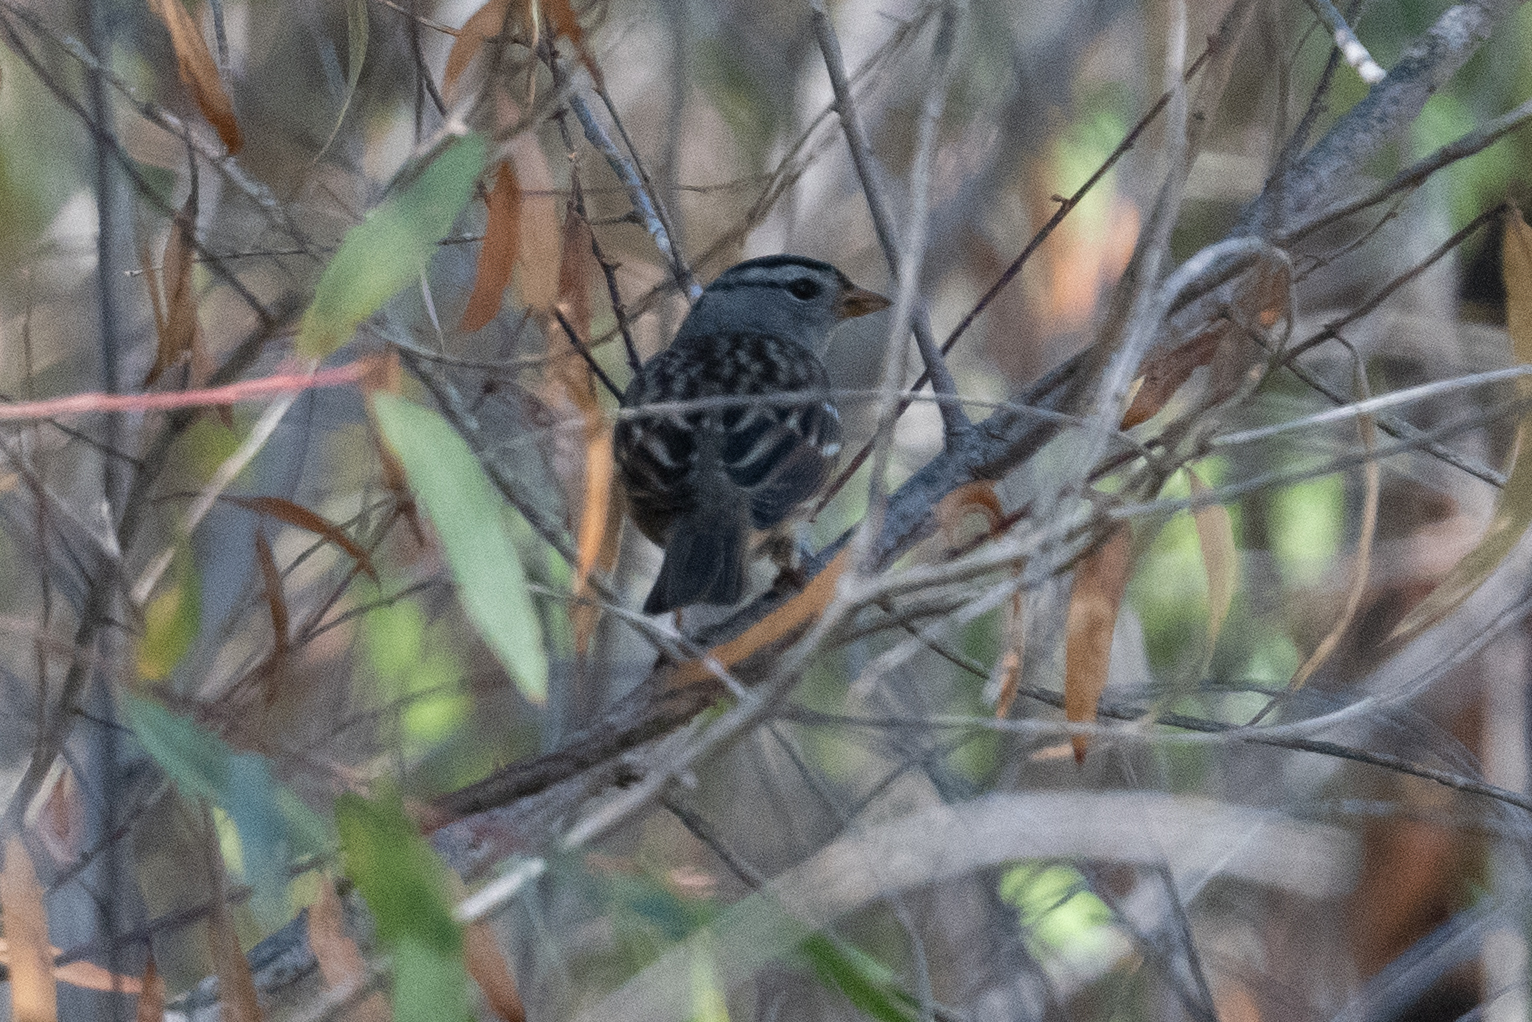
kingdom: Animalia
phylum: Chordata
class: Aves
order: Passeriformes
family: Passerellidae
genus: Zonotrichia
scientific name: Zonotrichia leucophrys
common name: White-crowned sparrow
